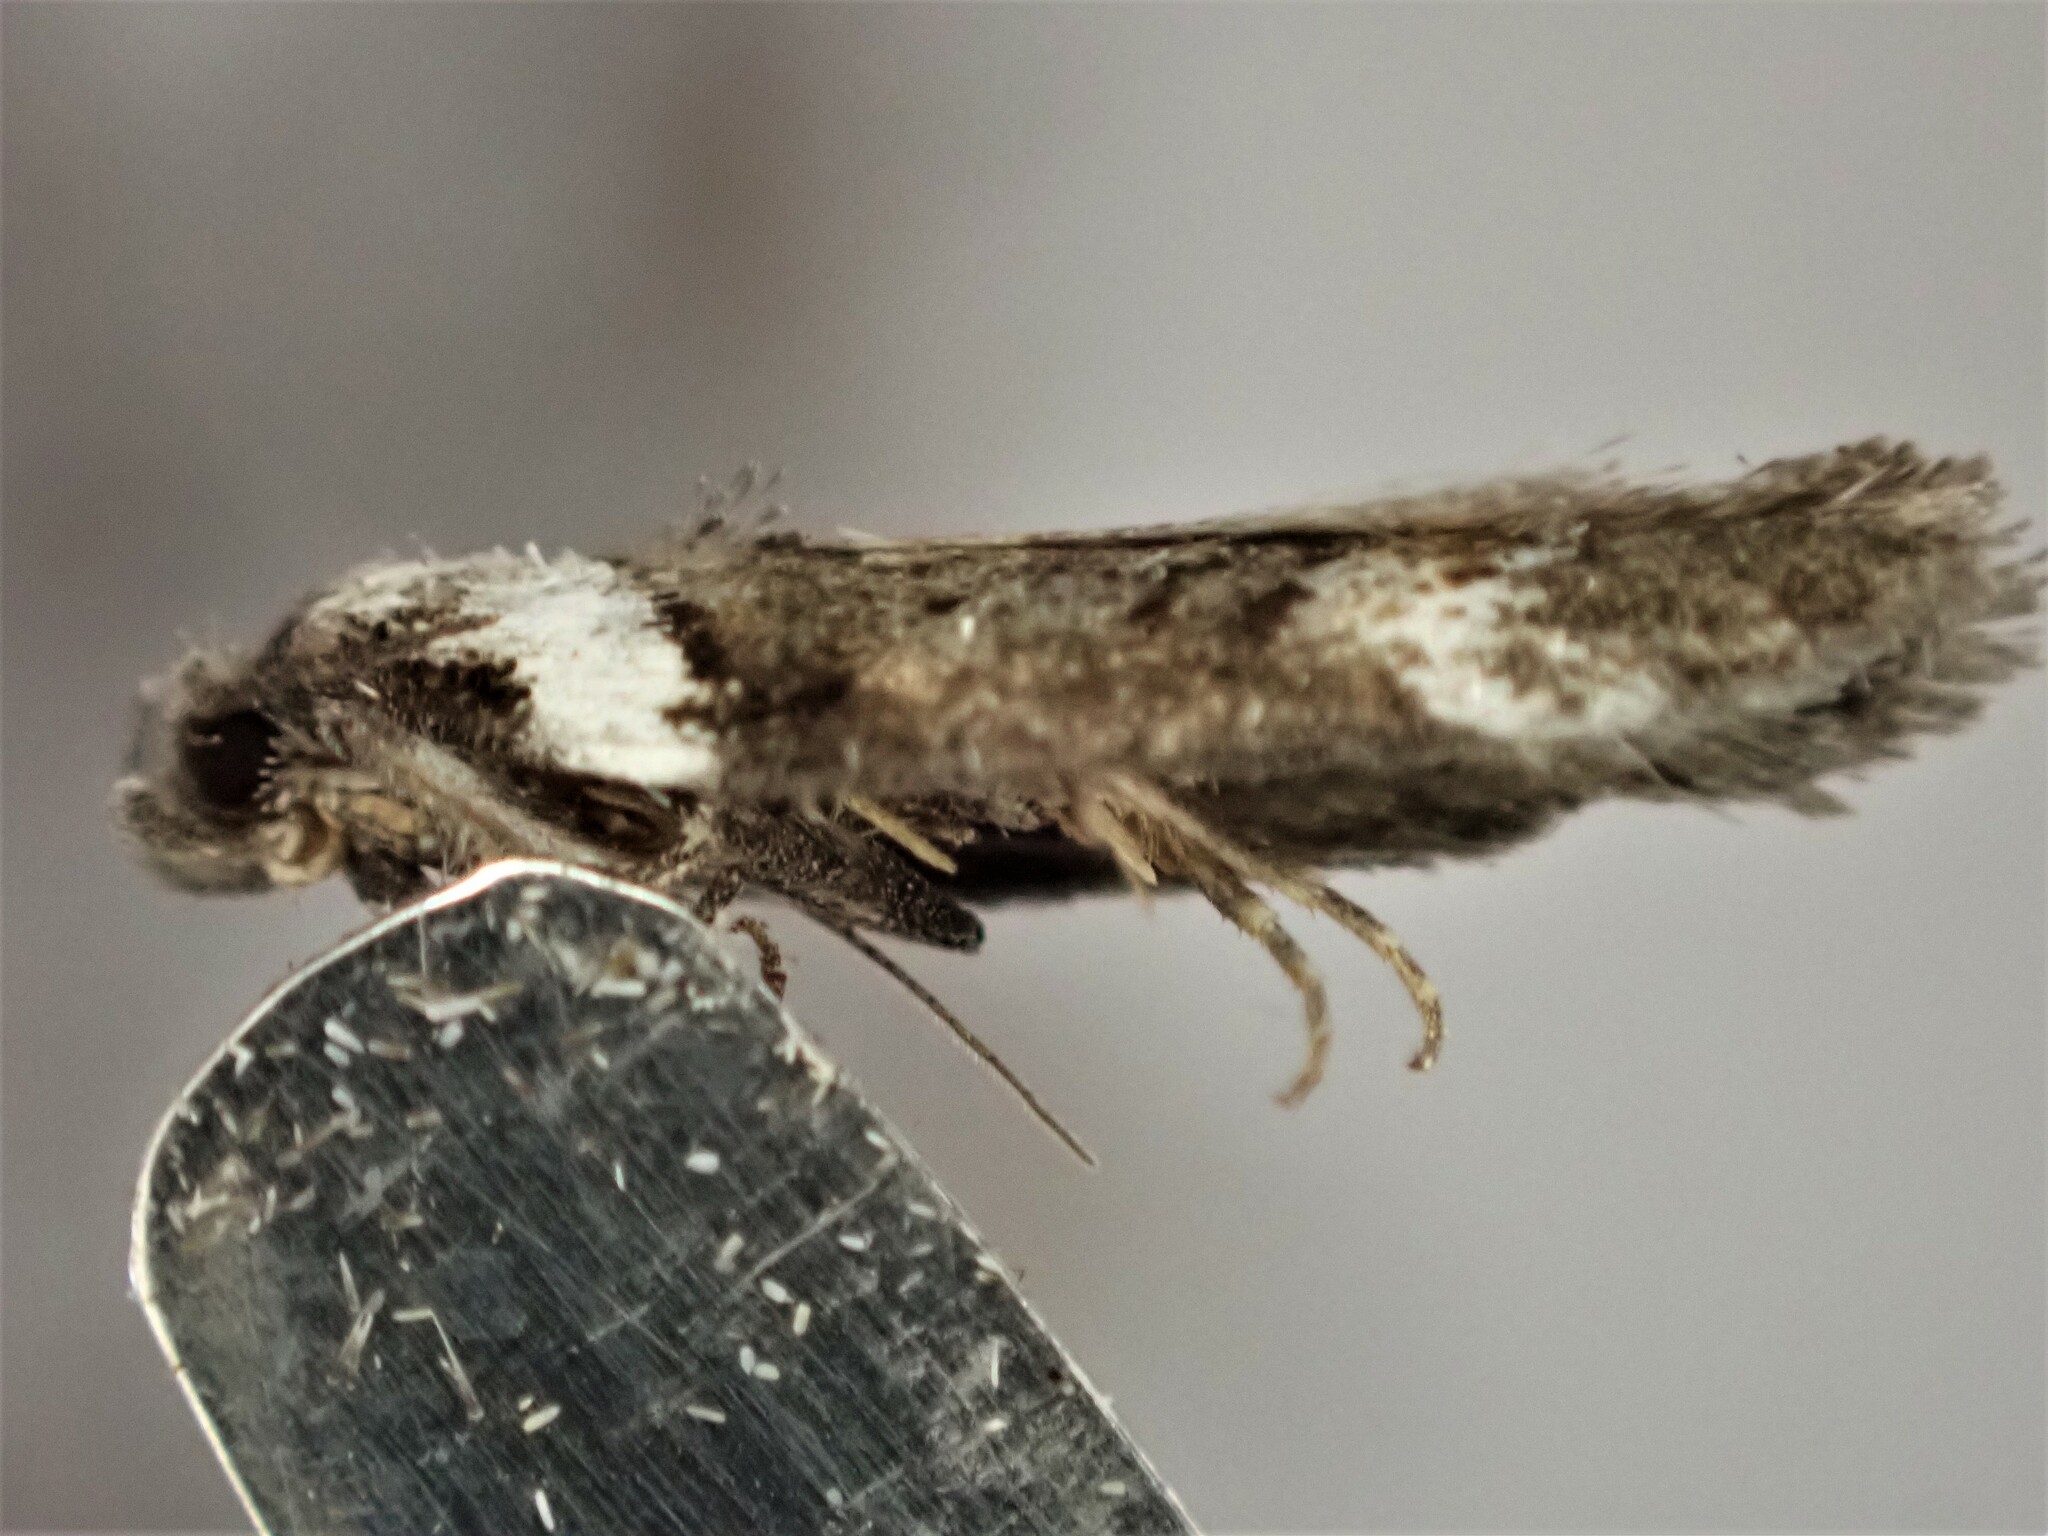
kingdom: Animalia
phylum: Arthropoda
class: Insecta
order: Lepidoptera
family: Oecophoridae
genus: Trachypepla
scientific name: Trachypepla conspicuella
